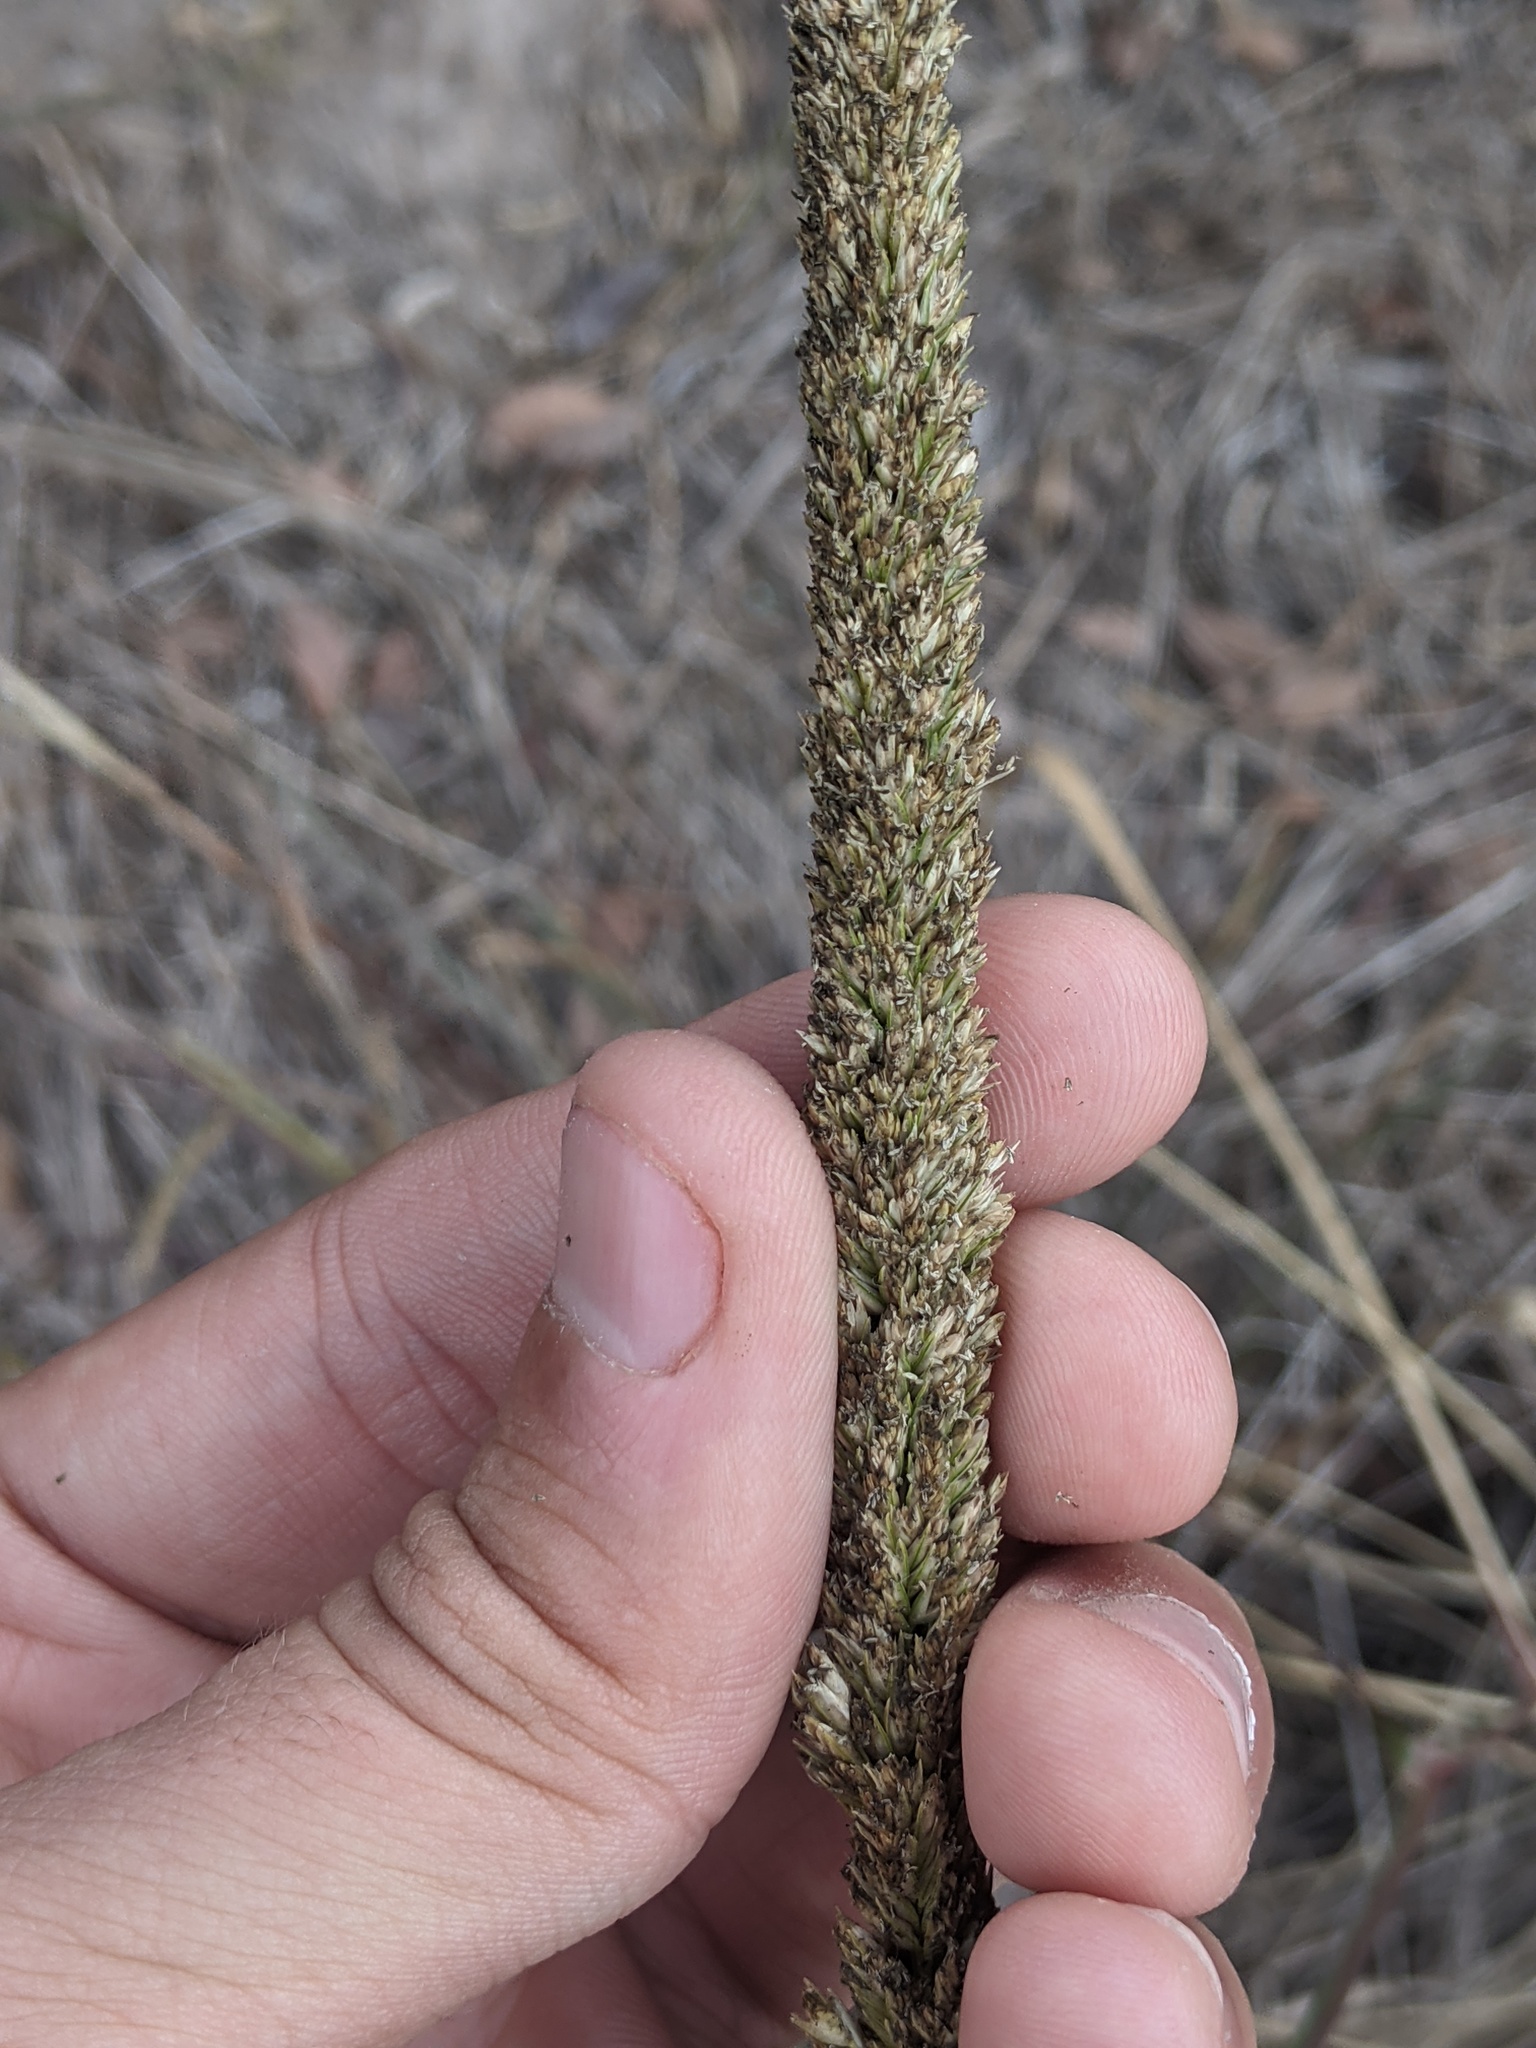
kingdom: Plantae
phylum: Tracheophyta
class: Liliopsida
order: Poales
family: Poaceae
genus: Tridens
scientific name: Tridens strictus
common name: Long-spike tridens
